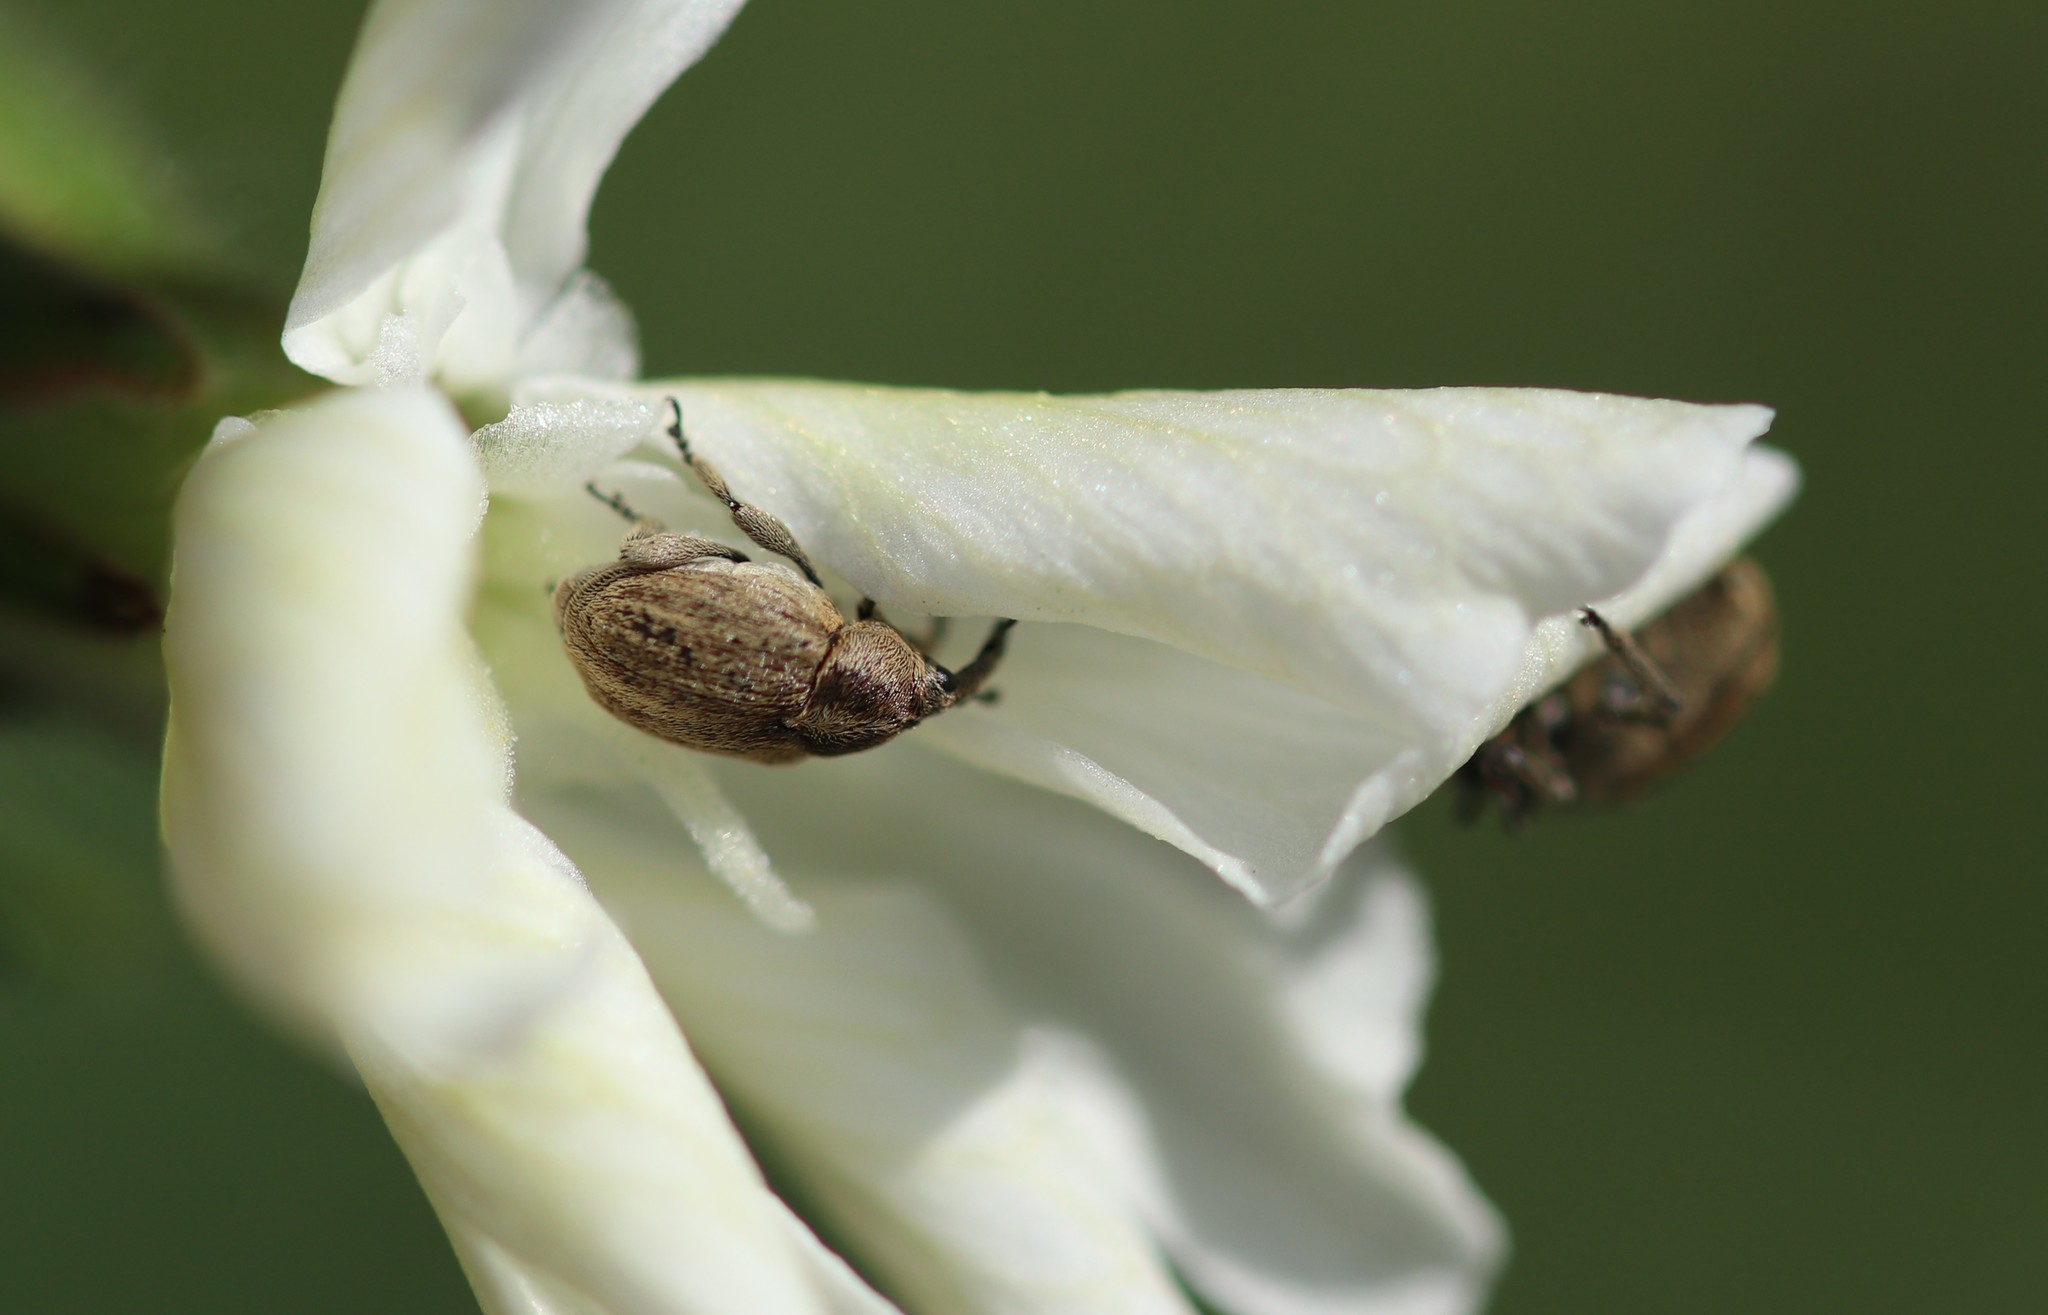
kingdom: Animalia
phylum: Arthropoda
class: Insecta
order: Coleoptera
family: Curculionidae
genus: Sibinia
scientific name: Sibinia pellucens
